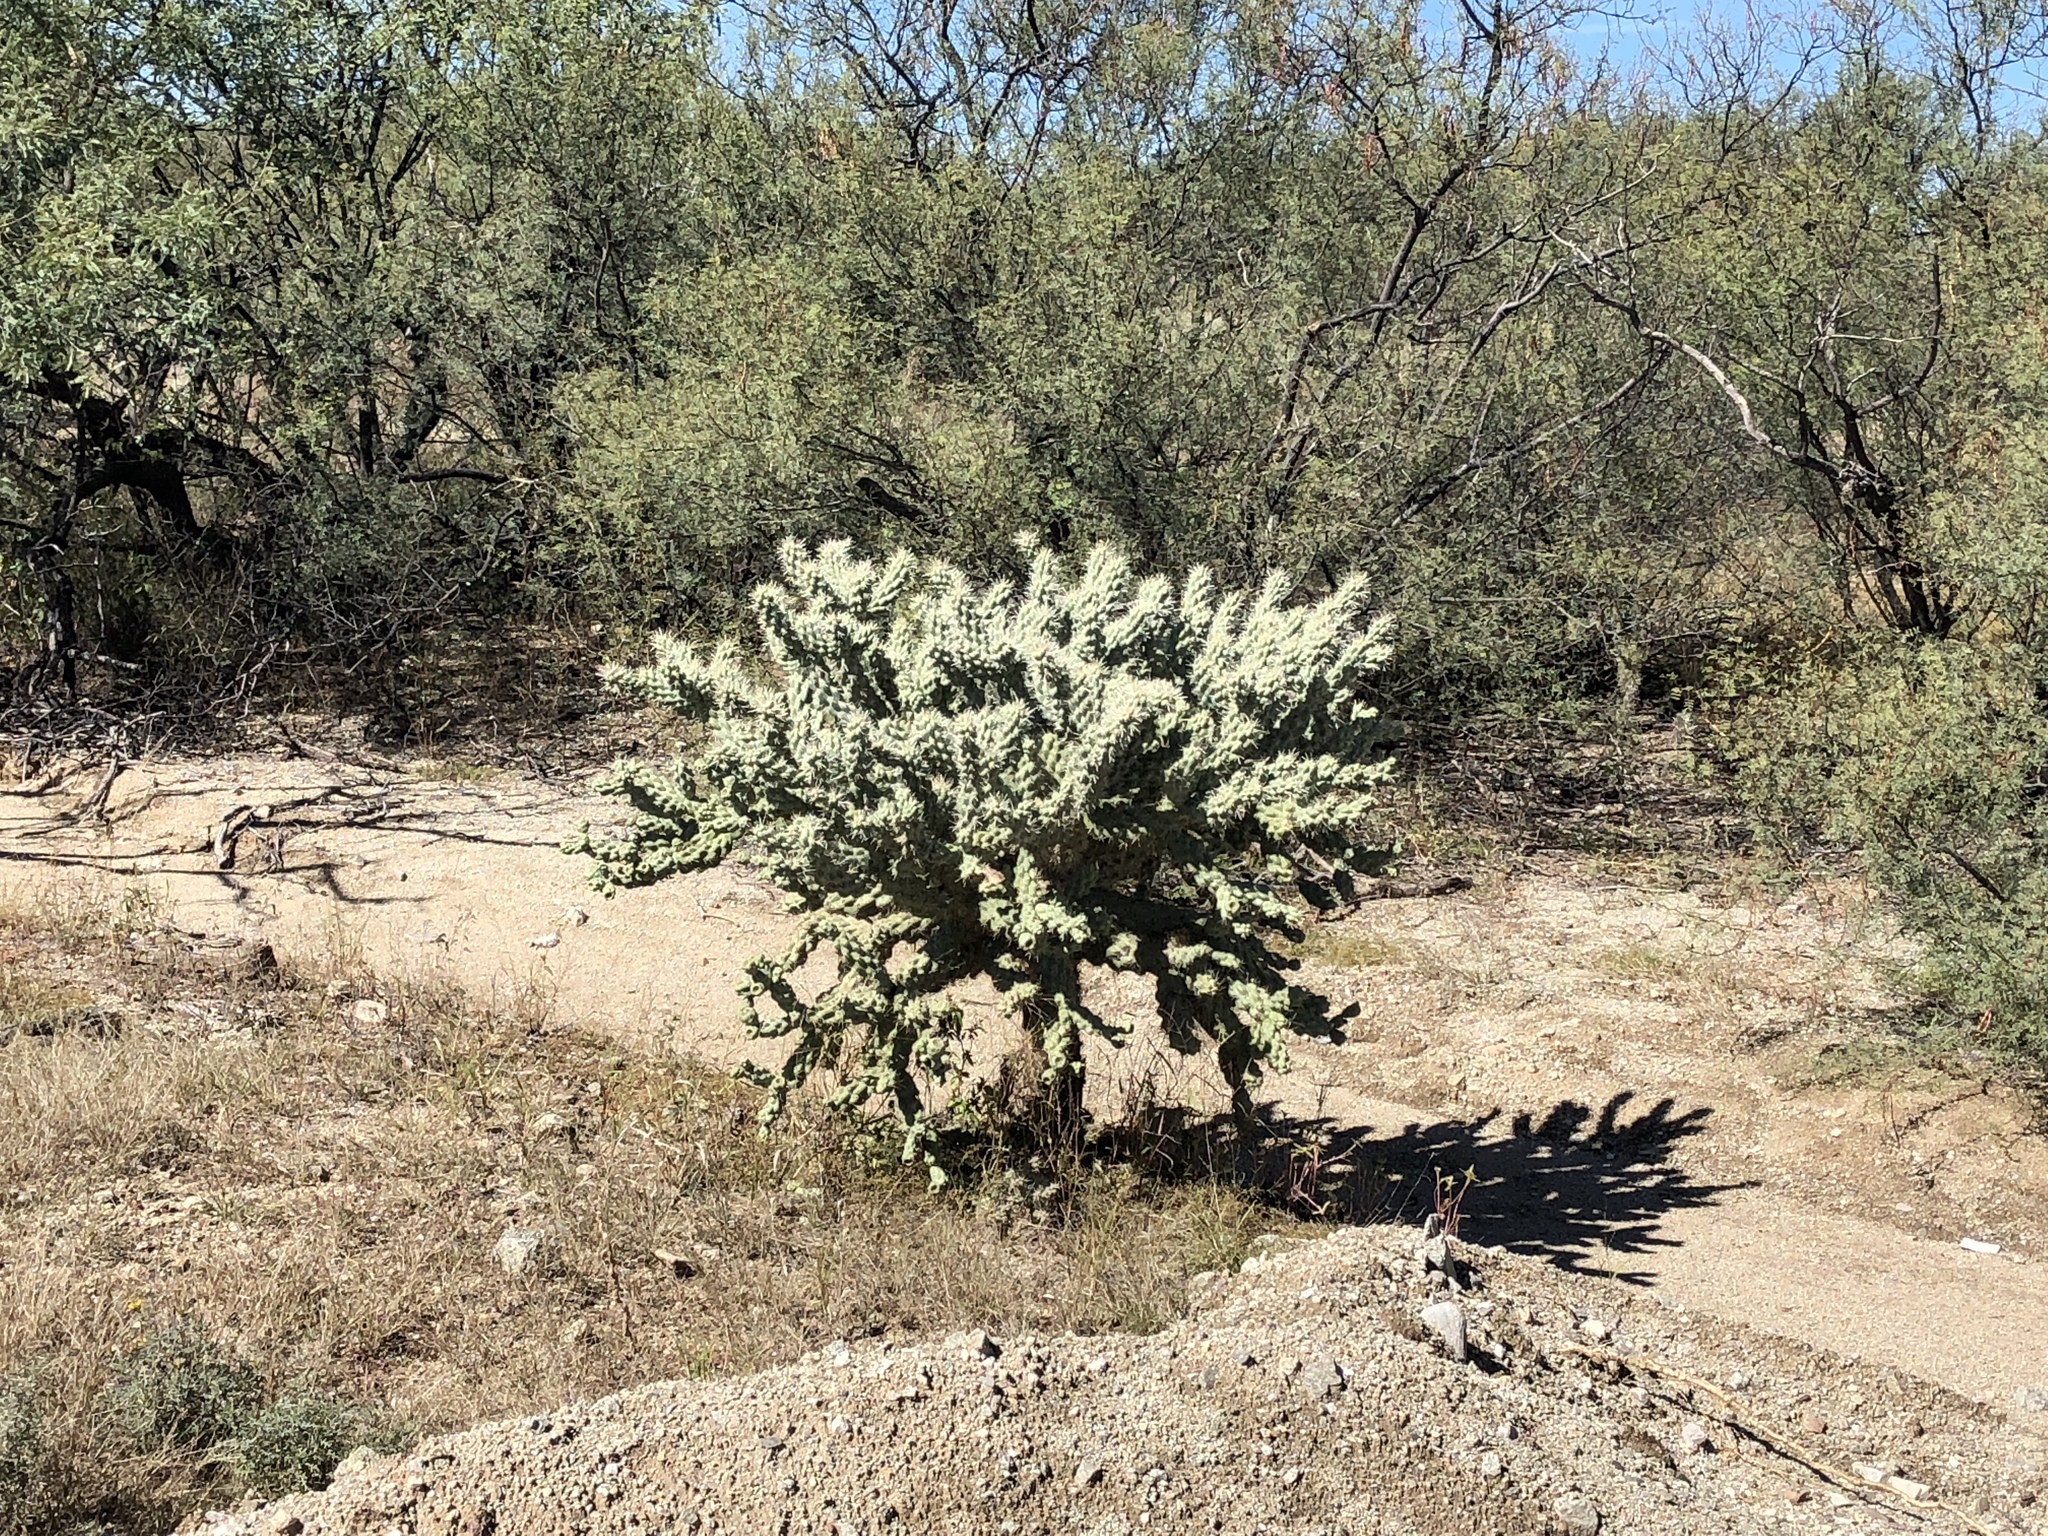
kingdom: Plantae
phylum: Tracheophyta
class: Magnoliopsida
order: Caryophyllales
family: Cactaceae
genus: Cylindropuntia
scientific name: Cylindropuntia fulgida
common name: Jumping cholla
